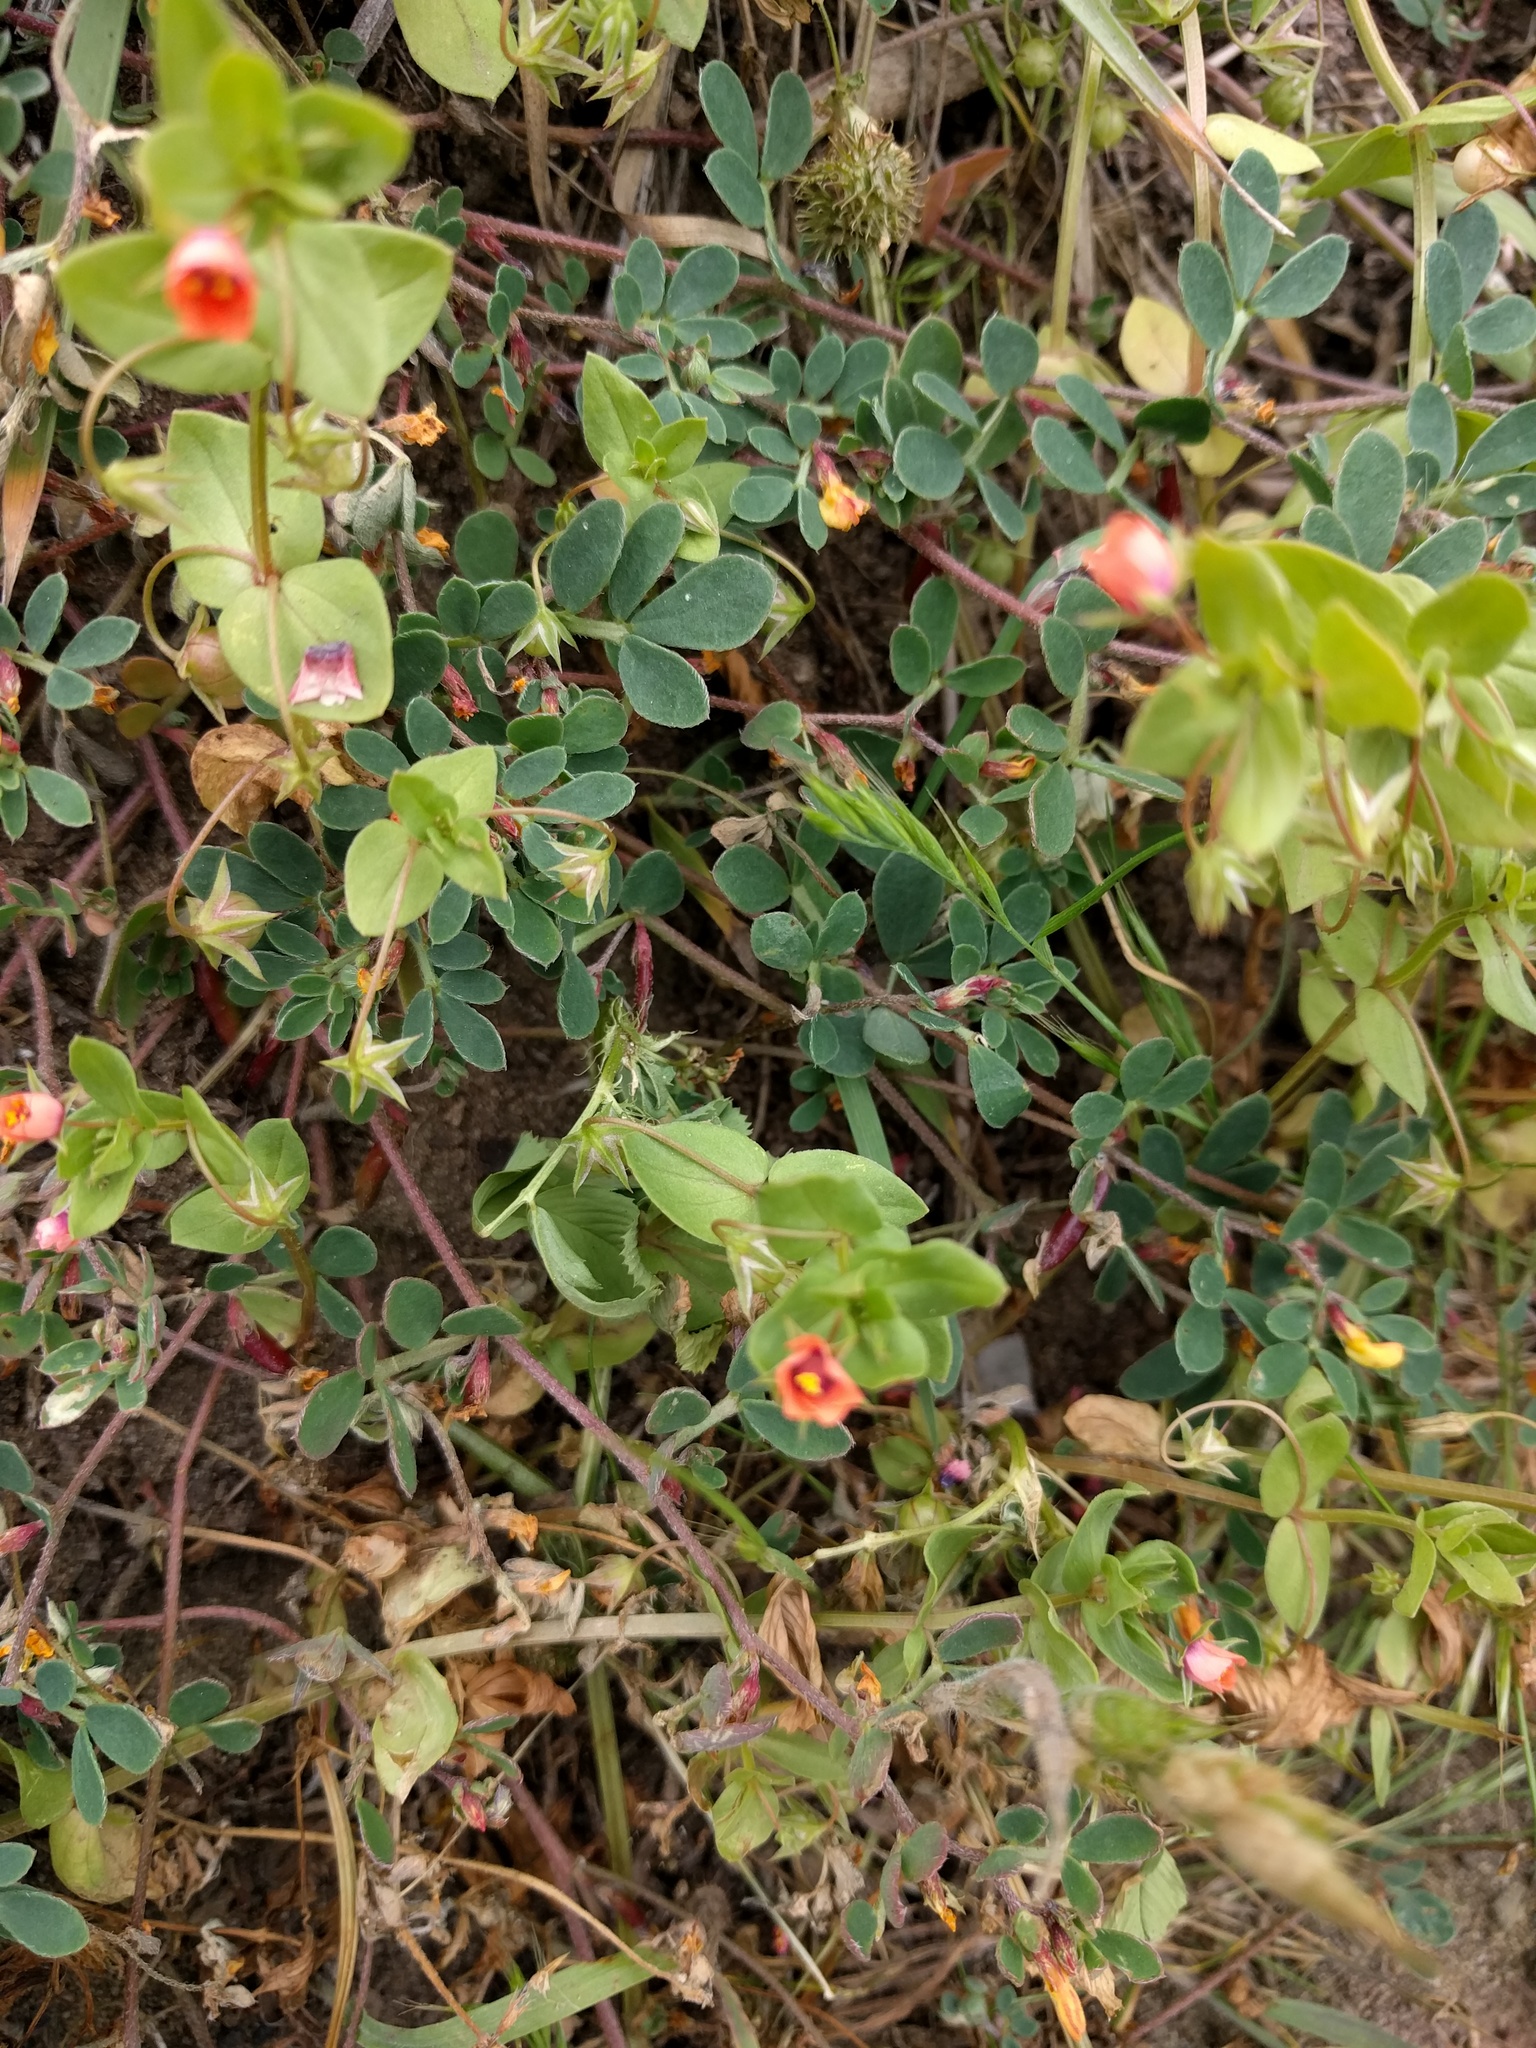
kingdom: Plantae
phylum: Tracheophyta
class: Magnoliopsida
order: Ericales
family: Primulaceae
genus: Lysimachia
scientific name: Lysimachia arvensis
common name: Scarlet pimpernel
